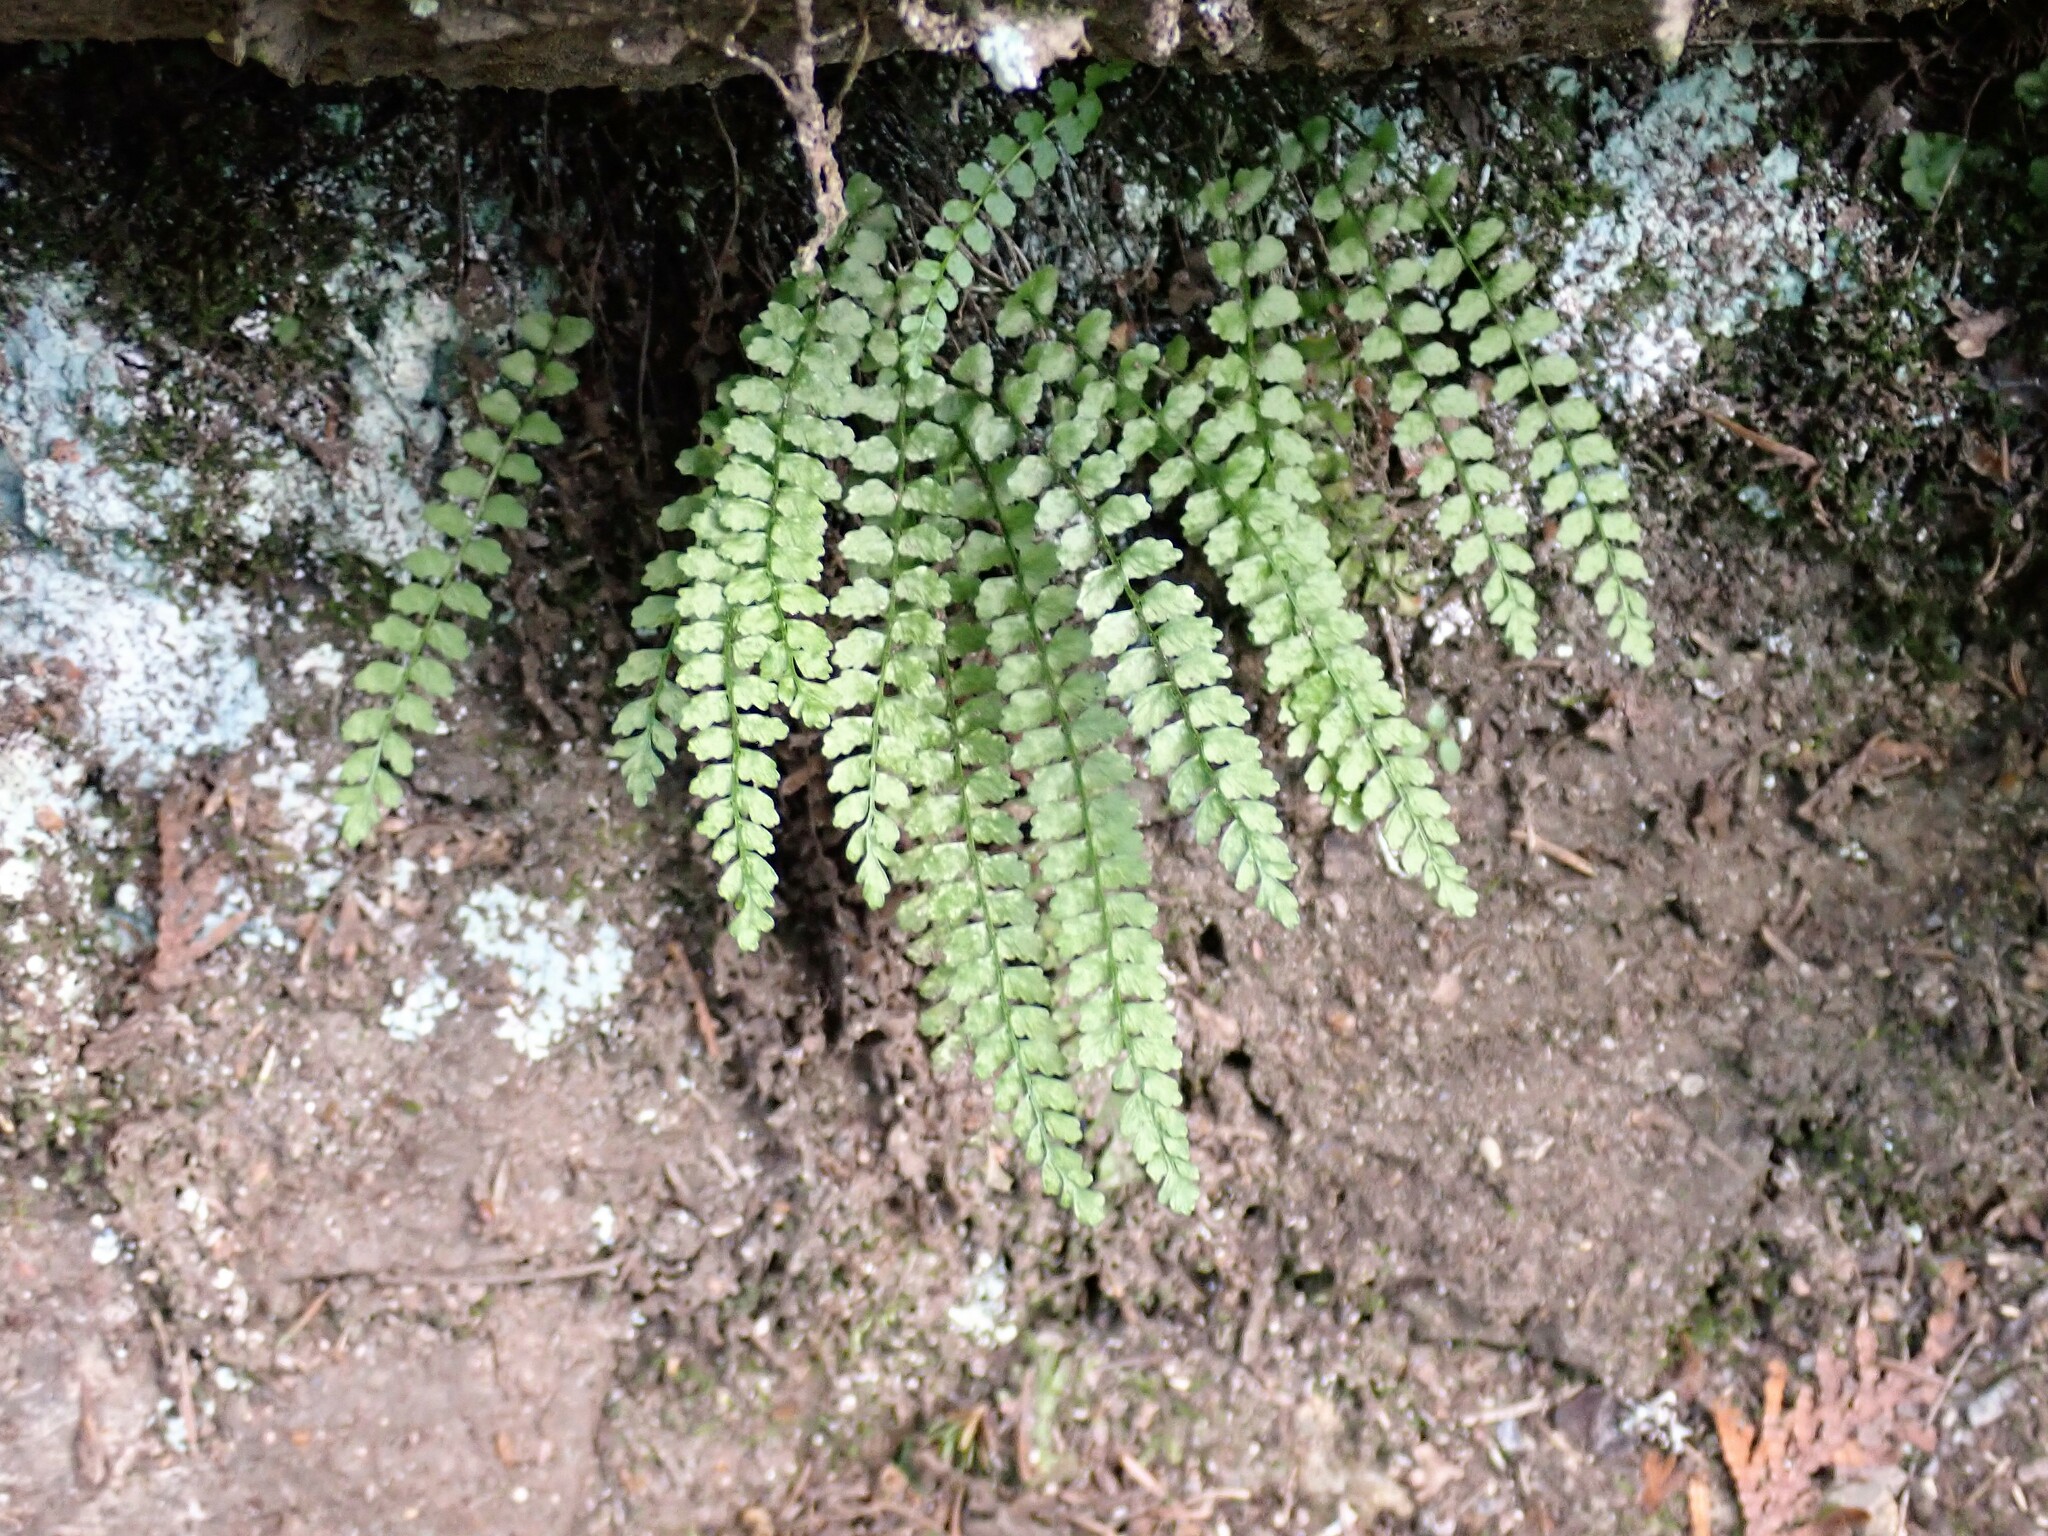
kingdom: Plantae
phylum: Tracheophyta
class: Polypodiopsida
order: Polypodiales
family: Aspleniaceae
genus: Asplenium
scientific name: Asplenium viride
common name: Green spleenwort
